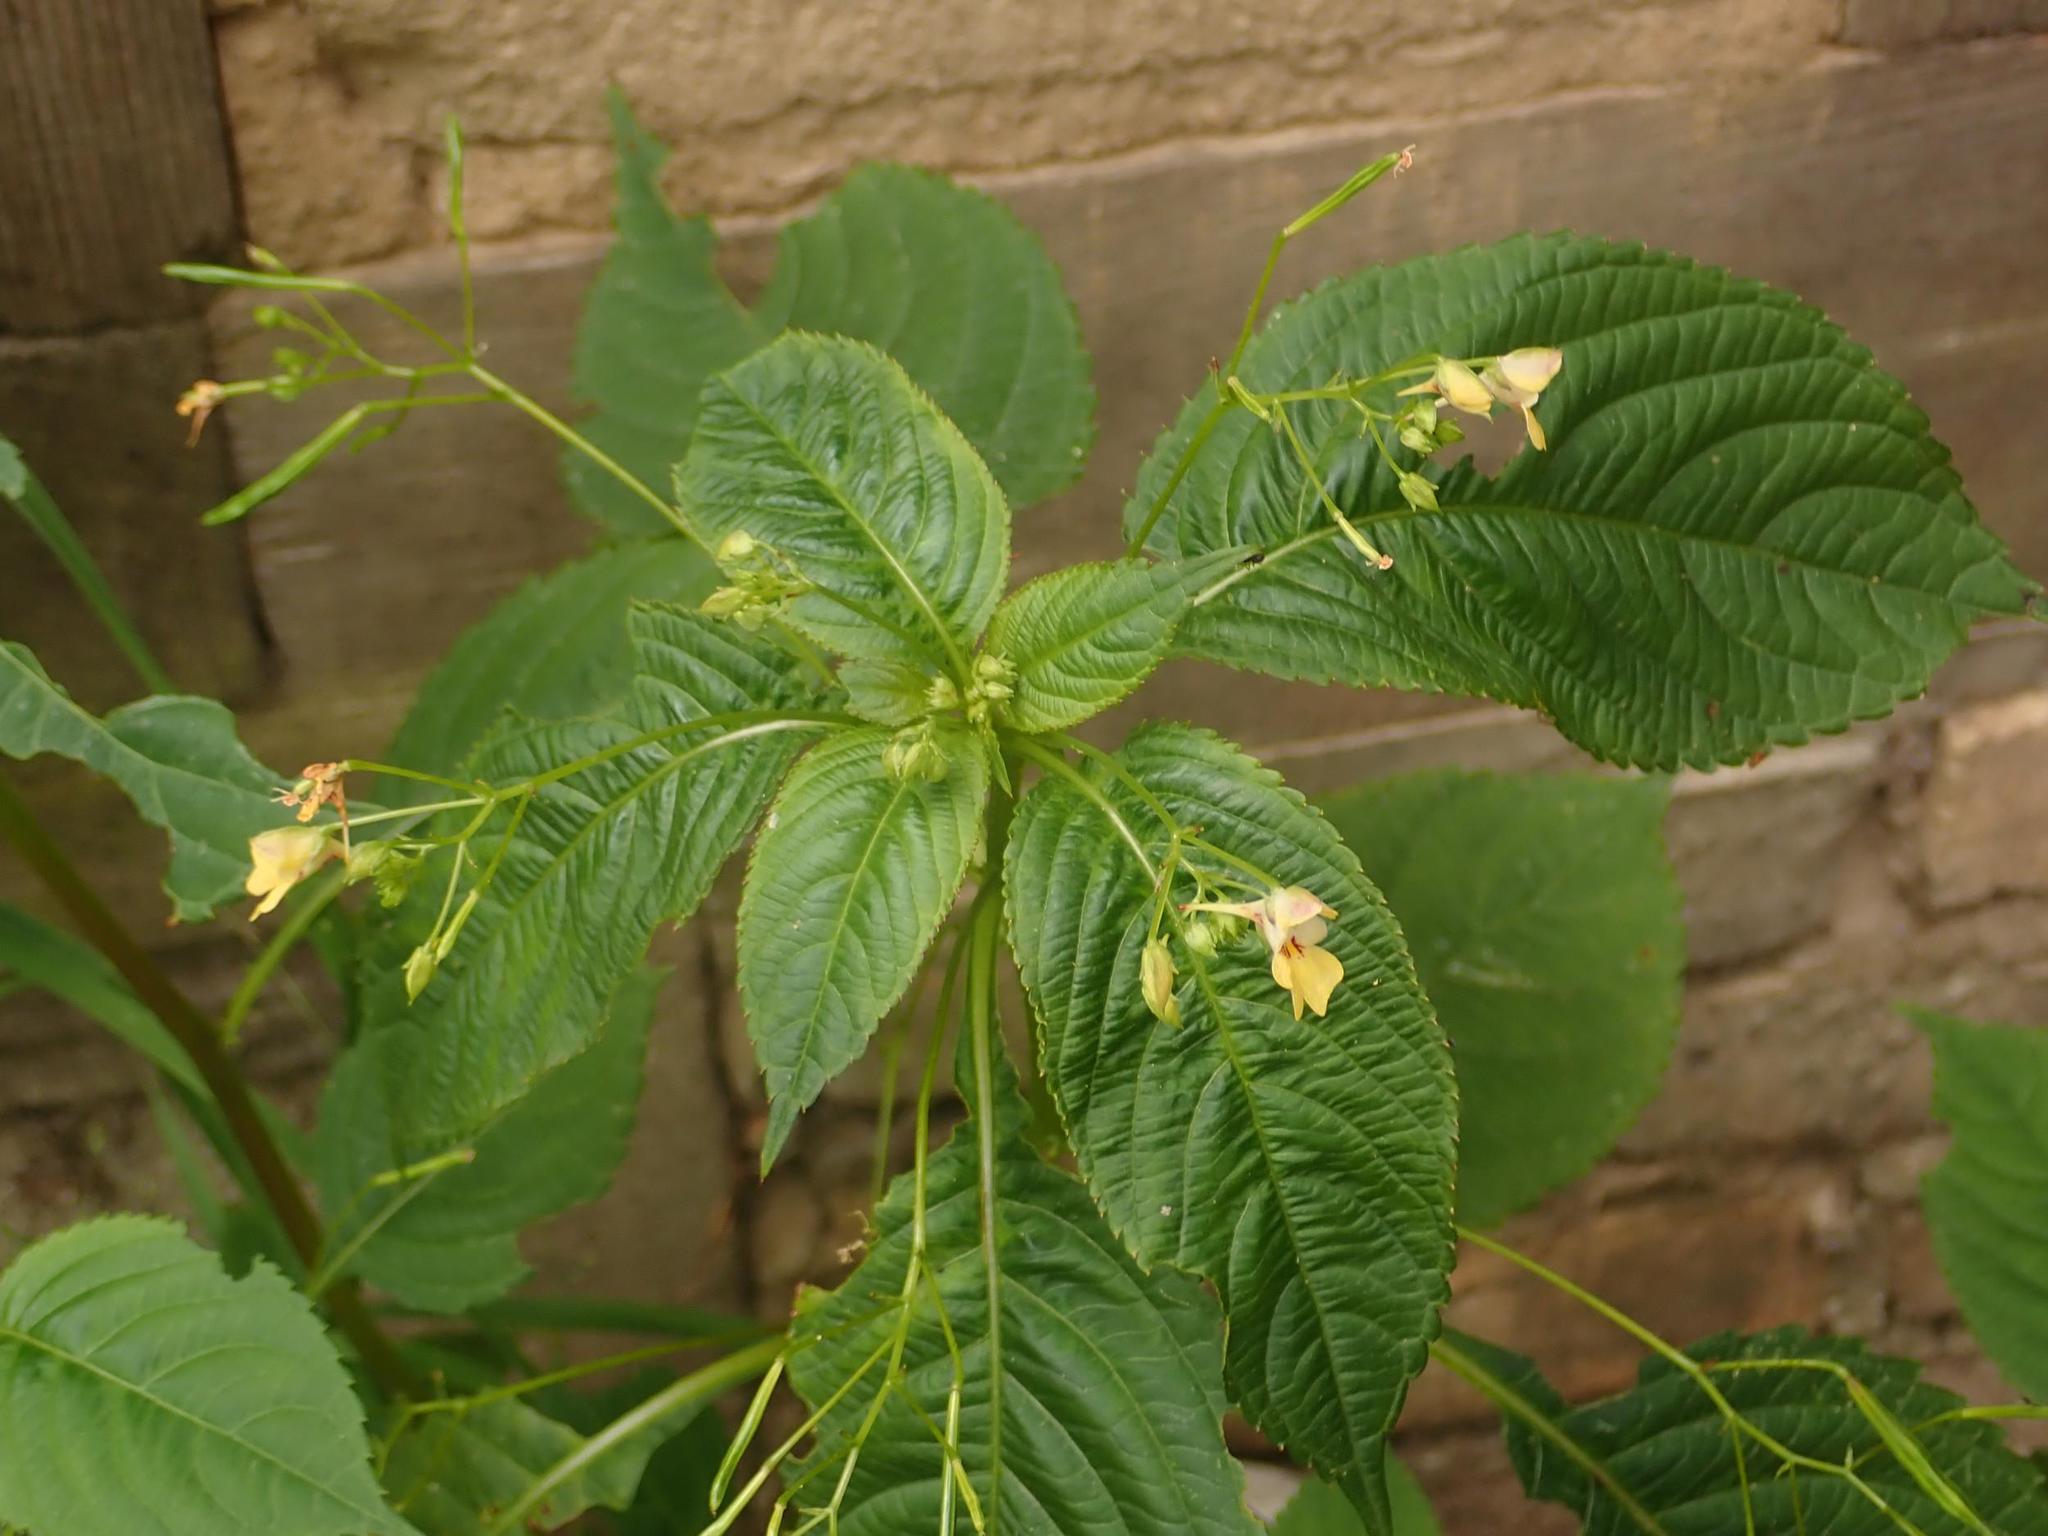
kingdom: Plantae
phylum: Tracheophyta
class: Magnoliopsida
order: Ericales
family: Balsaminaceae
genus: Impatiens
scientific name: Impatiens parviflora
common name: Small balsam
